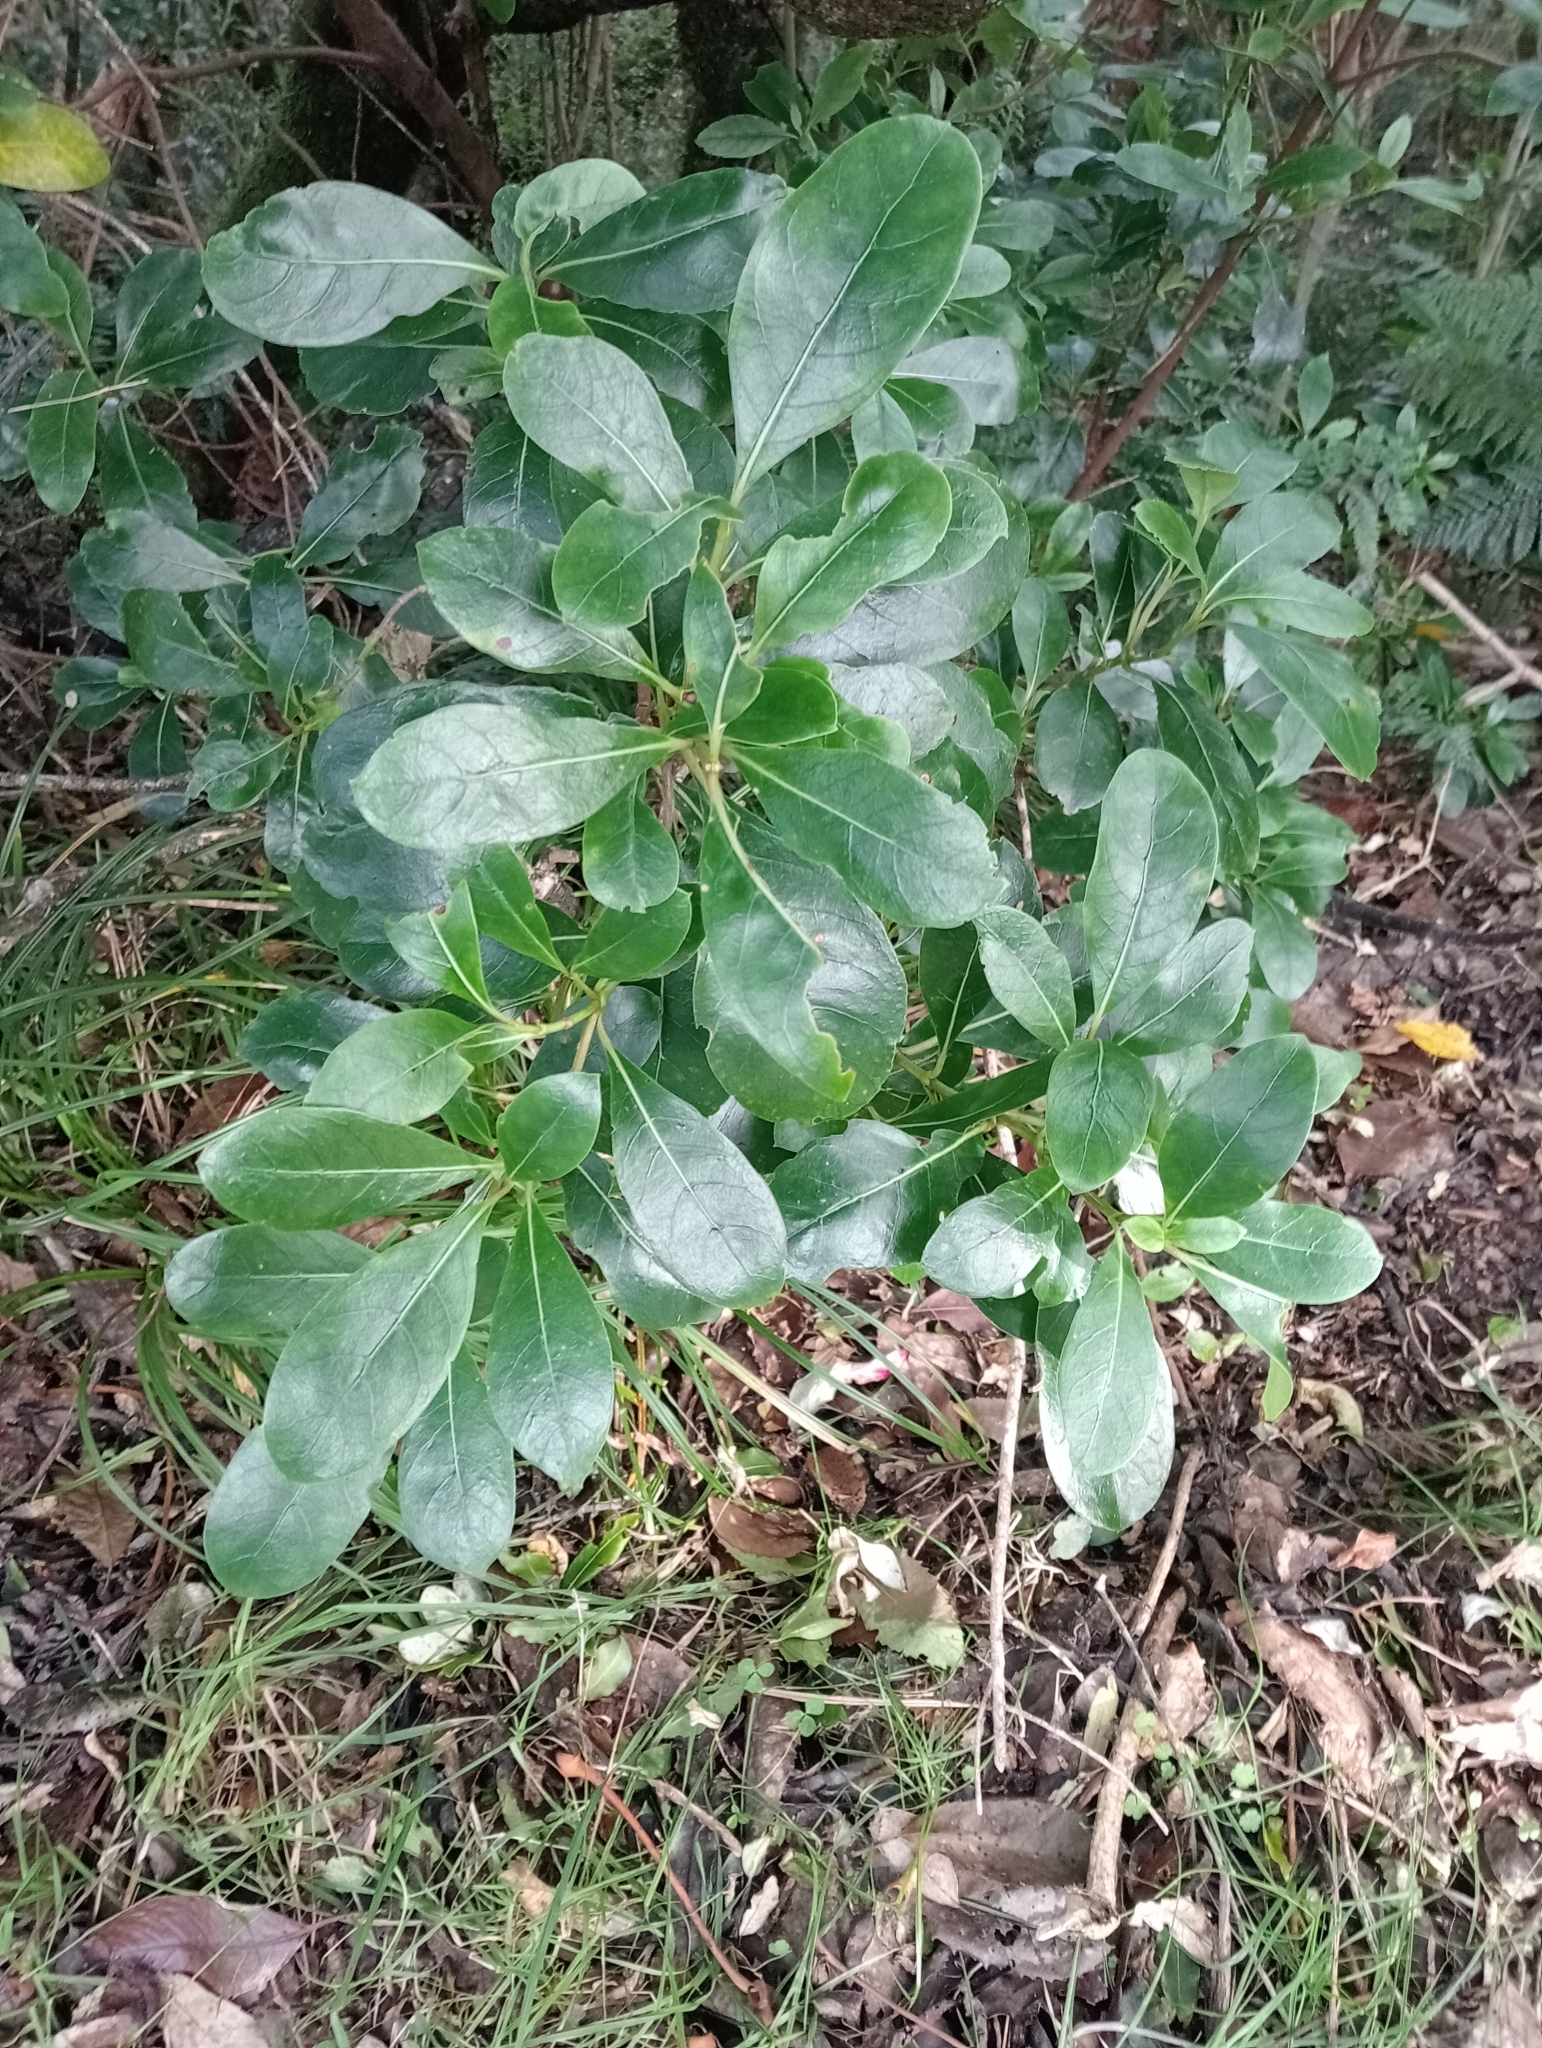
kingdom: Plantae
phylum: Tracheophyta
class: Magnoliopsida
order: Gentianales
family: Rubiaceae
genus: Coprosma
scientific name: Coprosma lucida
